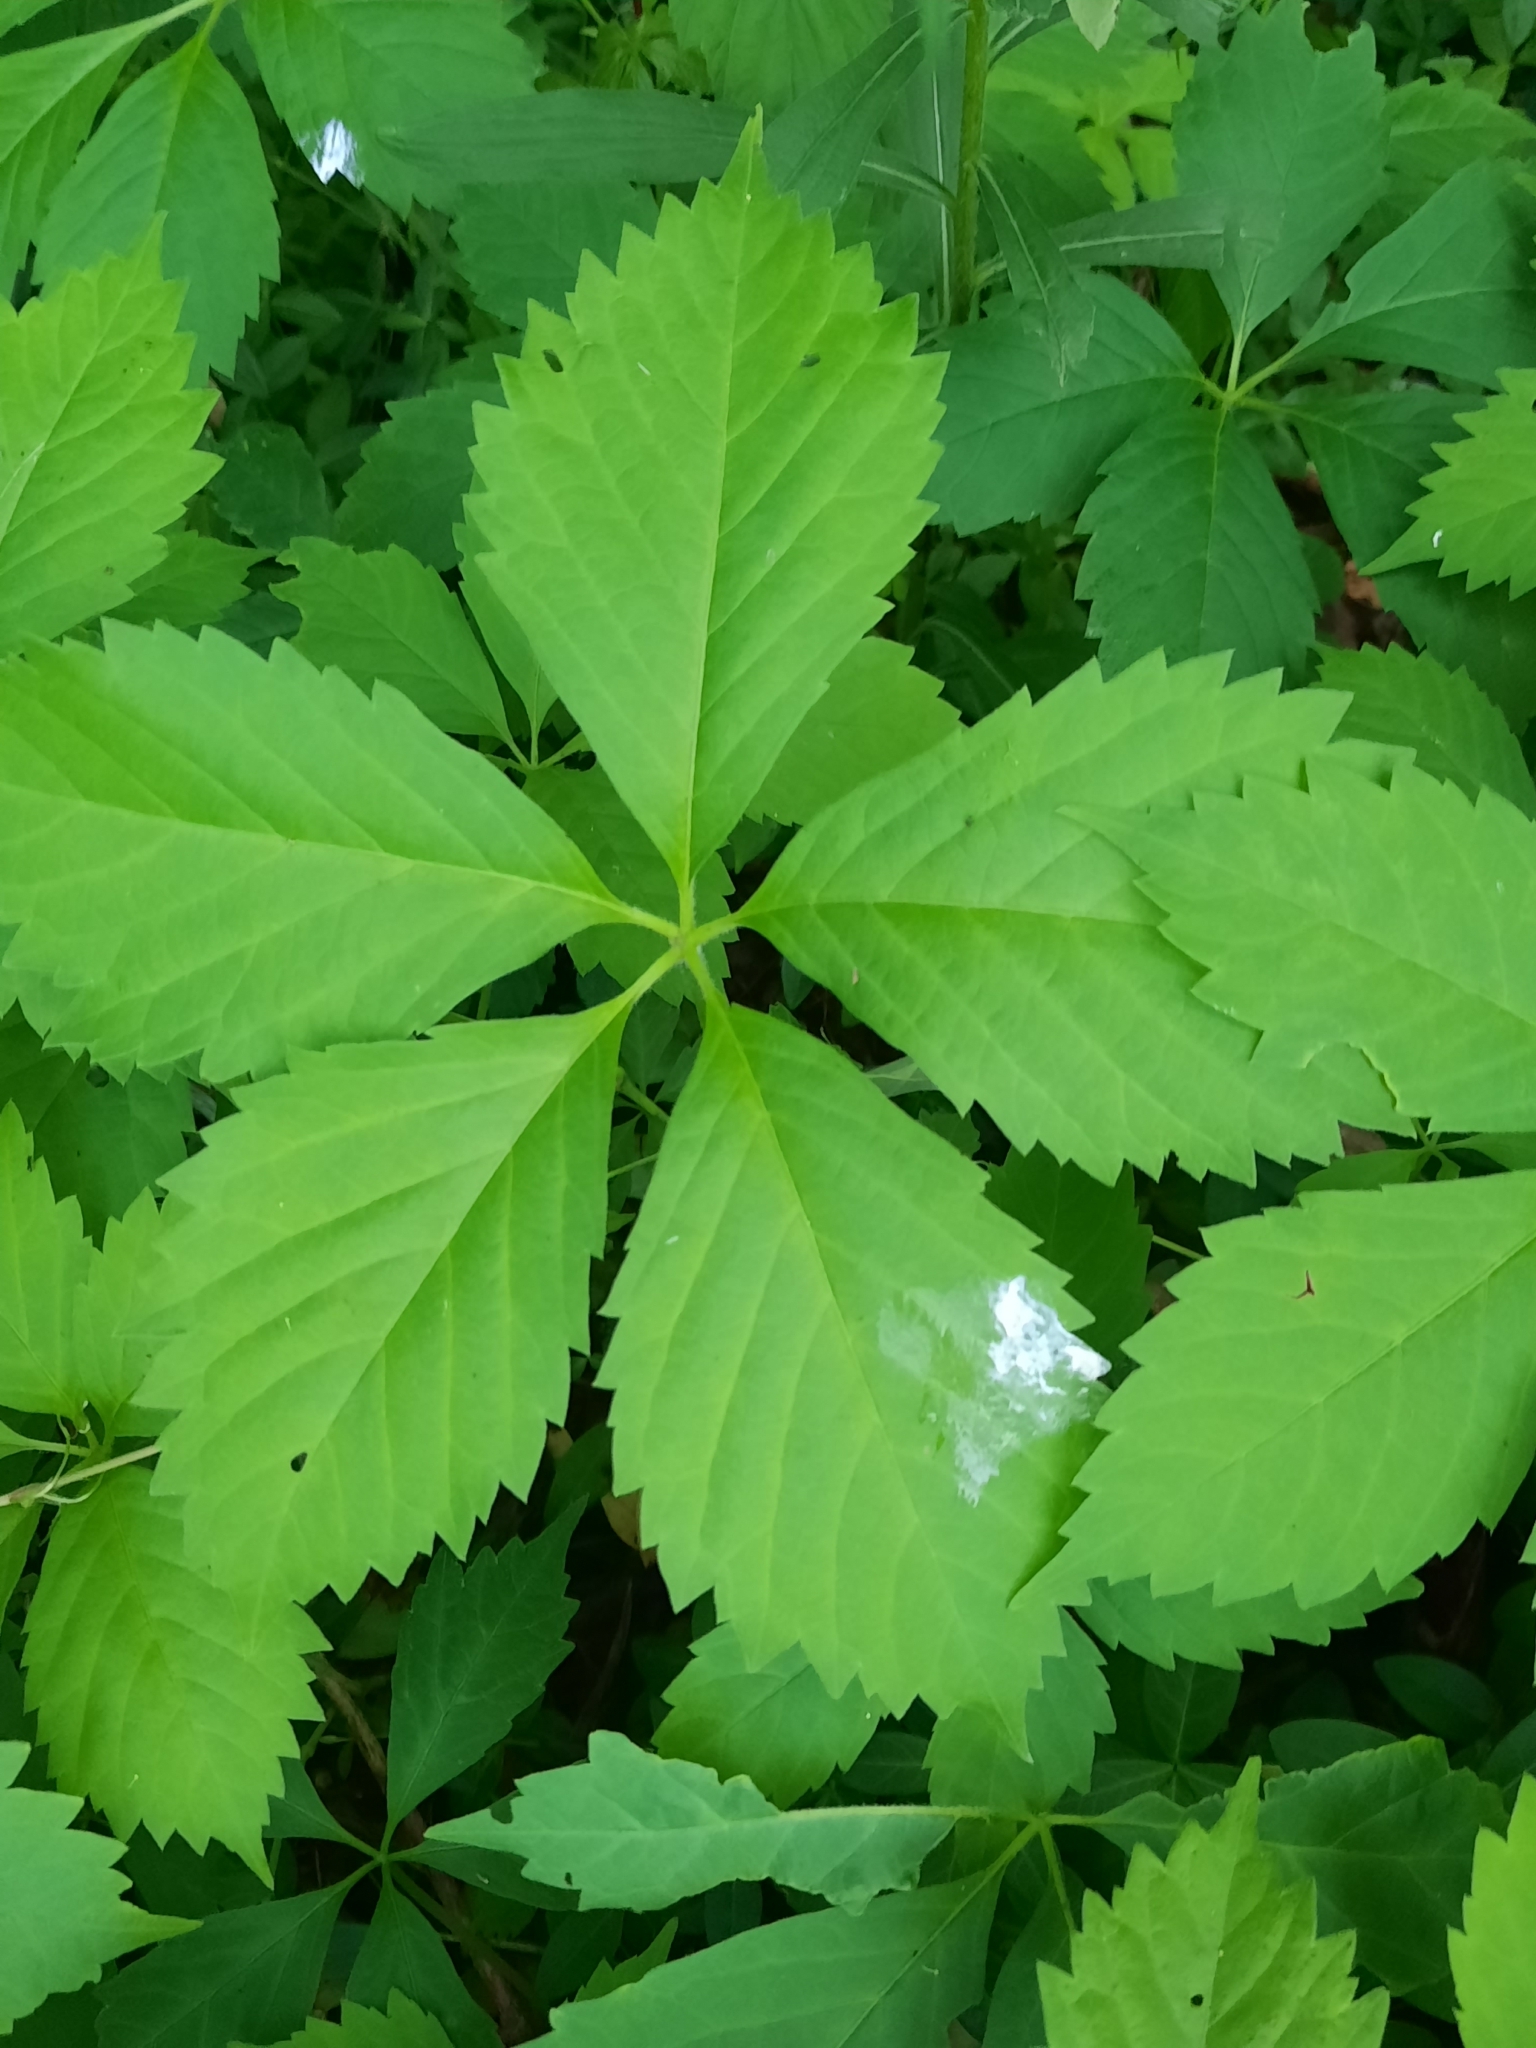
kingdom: Plantae
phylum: Tracheophyta
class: Magnoliopsida
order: Vitales
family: Vitaceae
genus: Parthenocissus
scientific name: Parthenocissus quinquefolia
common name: Virginia-creeper
